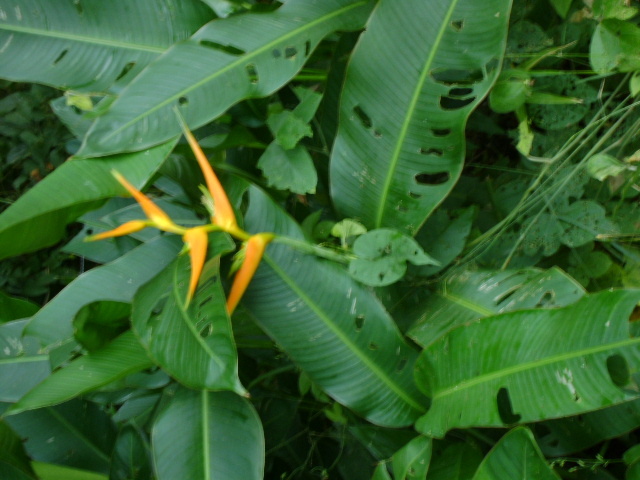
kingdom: Plantae
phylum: Tracheophyta
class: Liliopsida
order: Zingiberales
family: Heliconiaceae
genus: Heliconia
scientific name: Heliconia latispatha
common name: Expanded lobsterclaw
